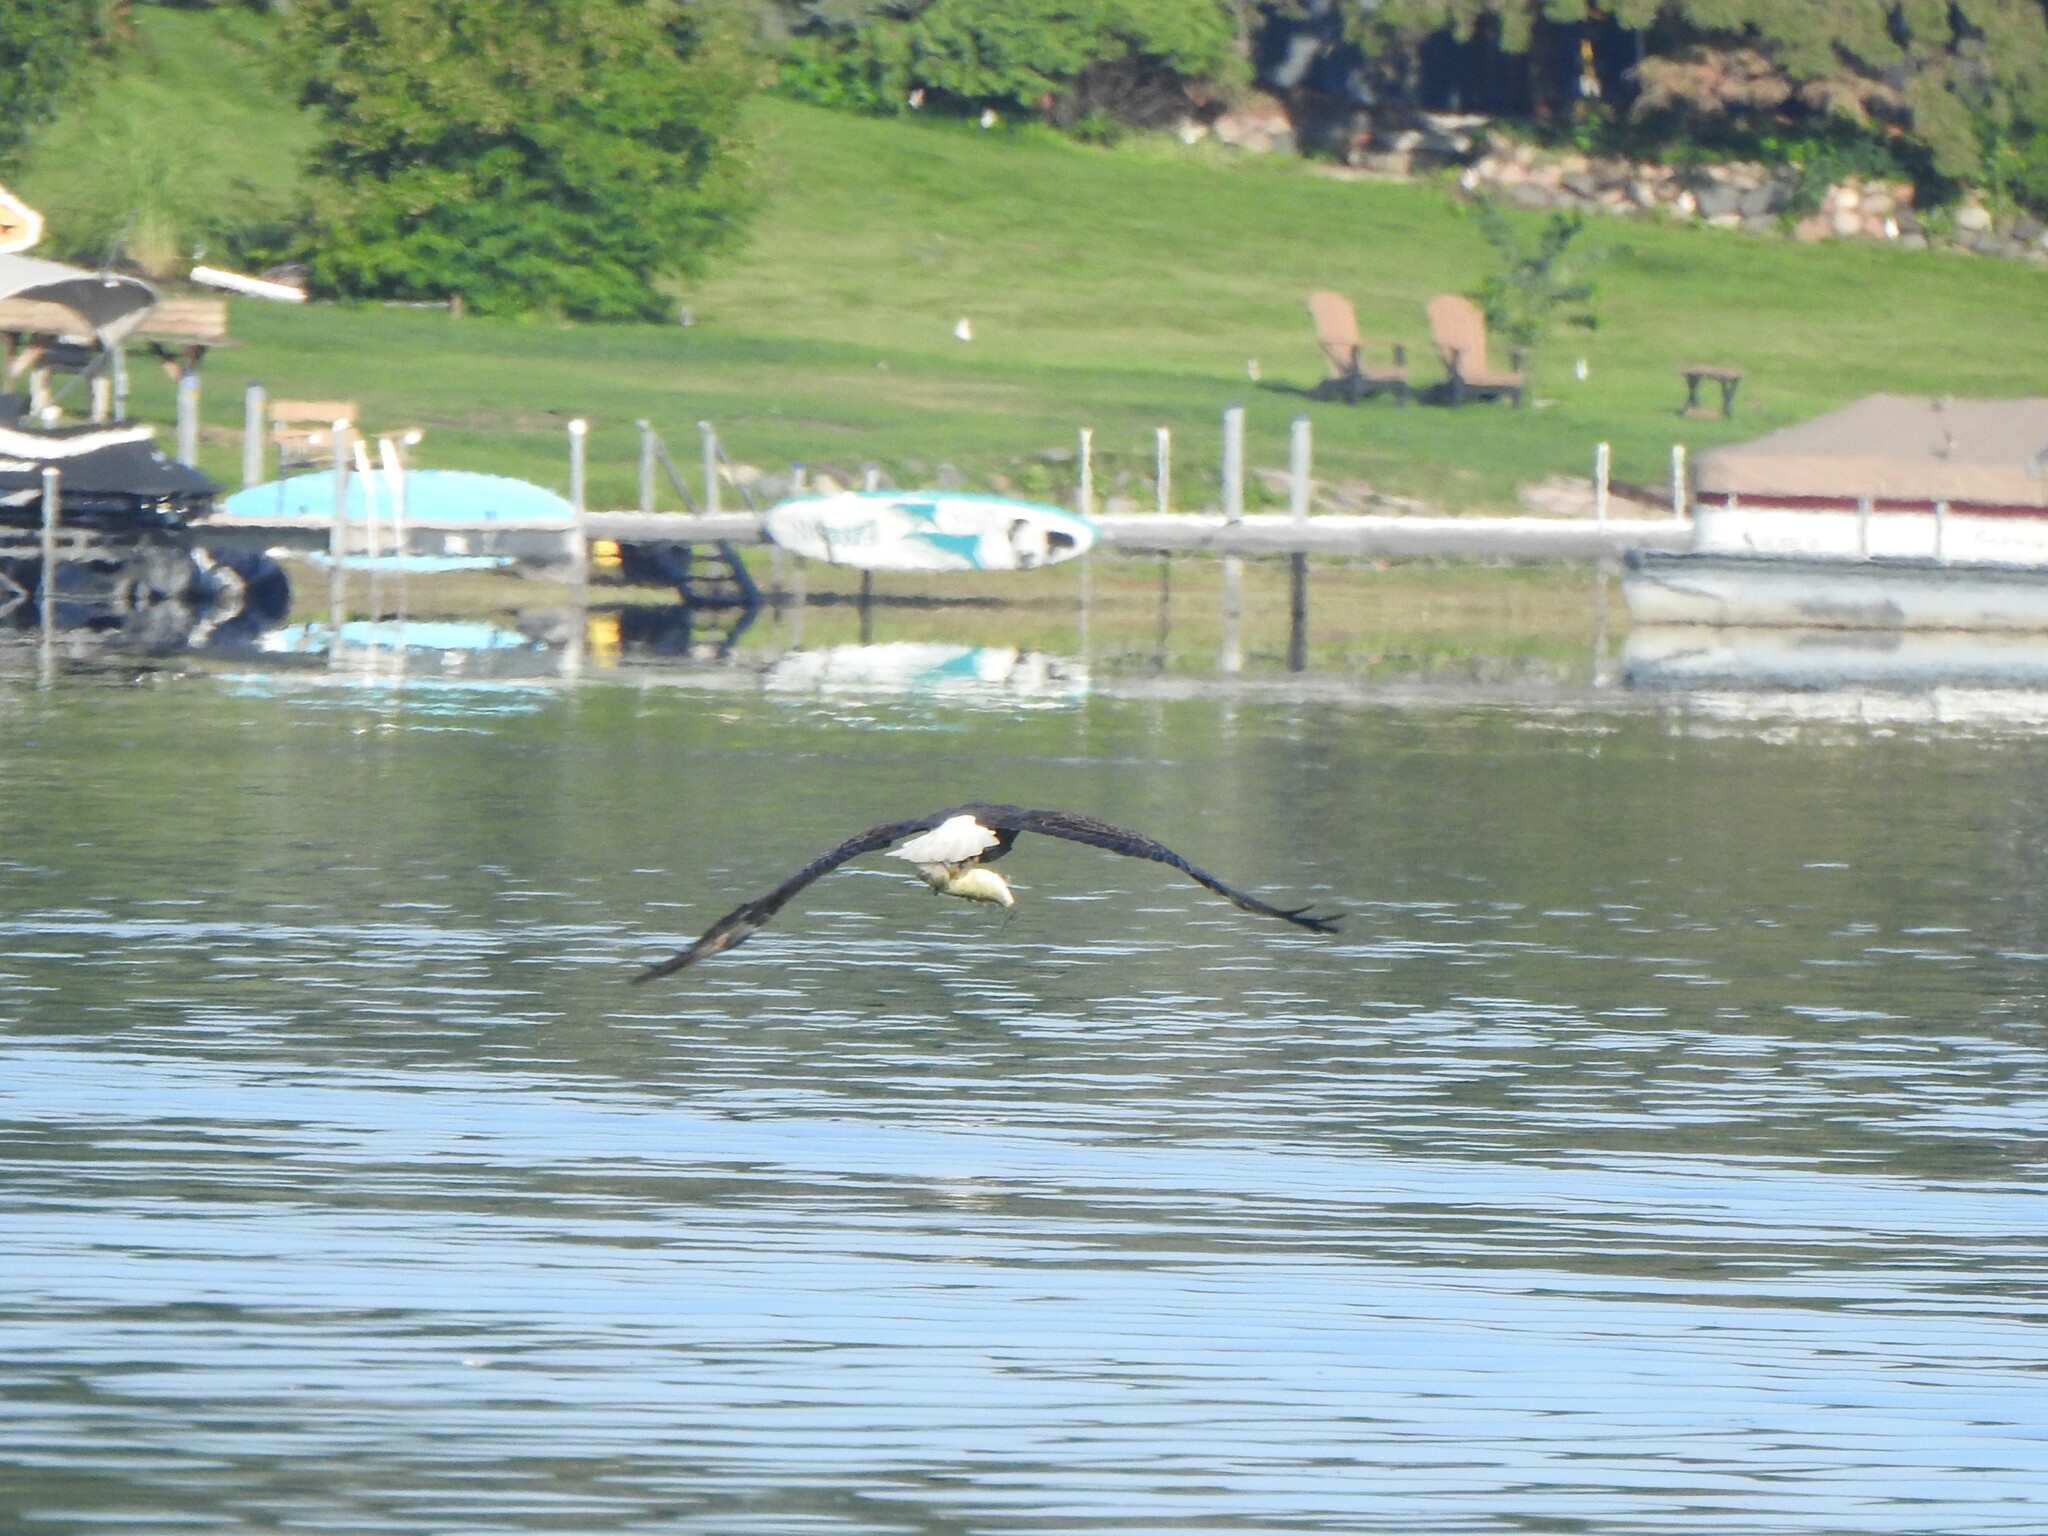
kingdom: Animalia
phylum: Chordata
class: Aves
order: Accipitriformes
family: Accipitridae
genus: Haliaeetus
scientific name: Haliaeetus leucocephalus
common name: Bald eagle
